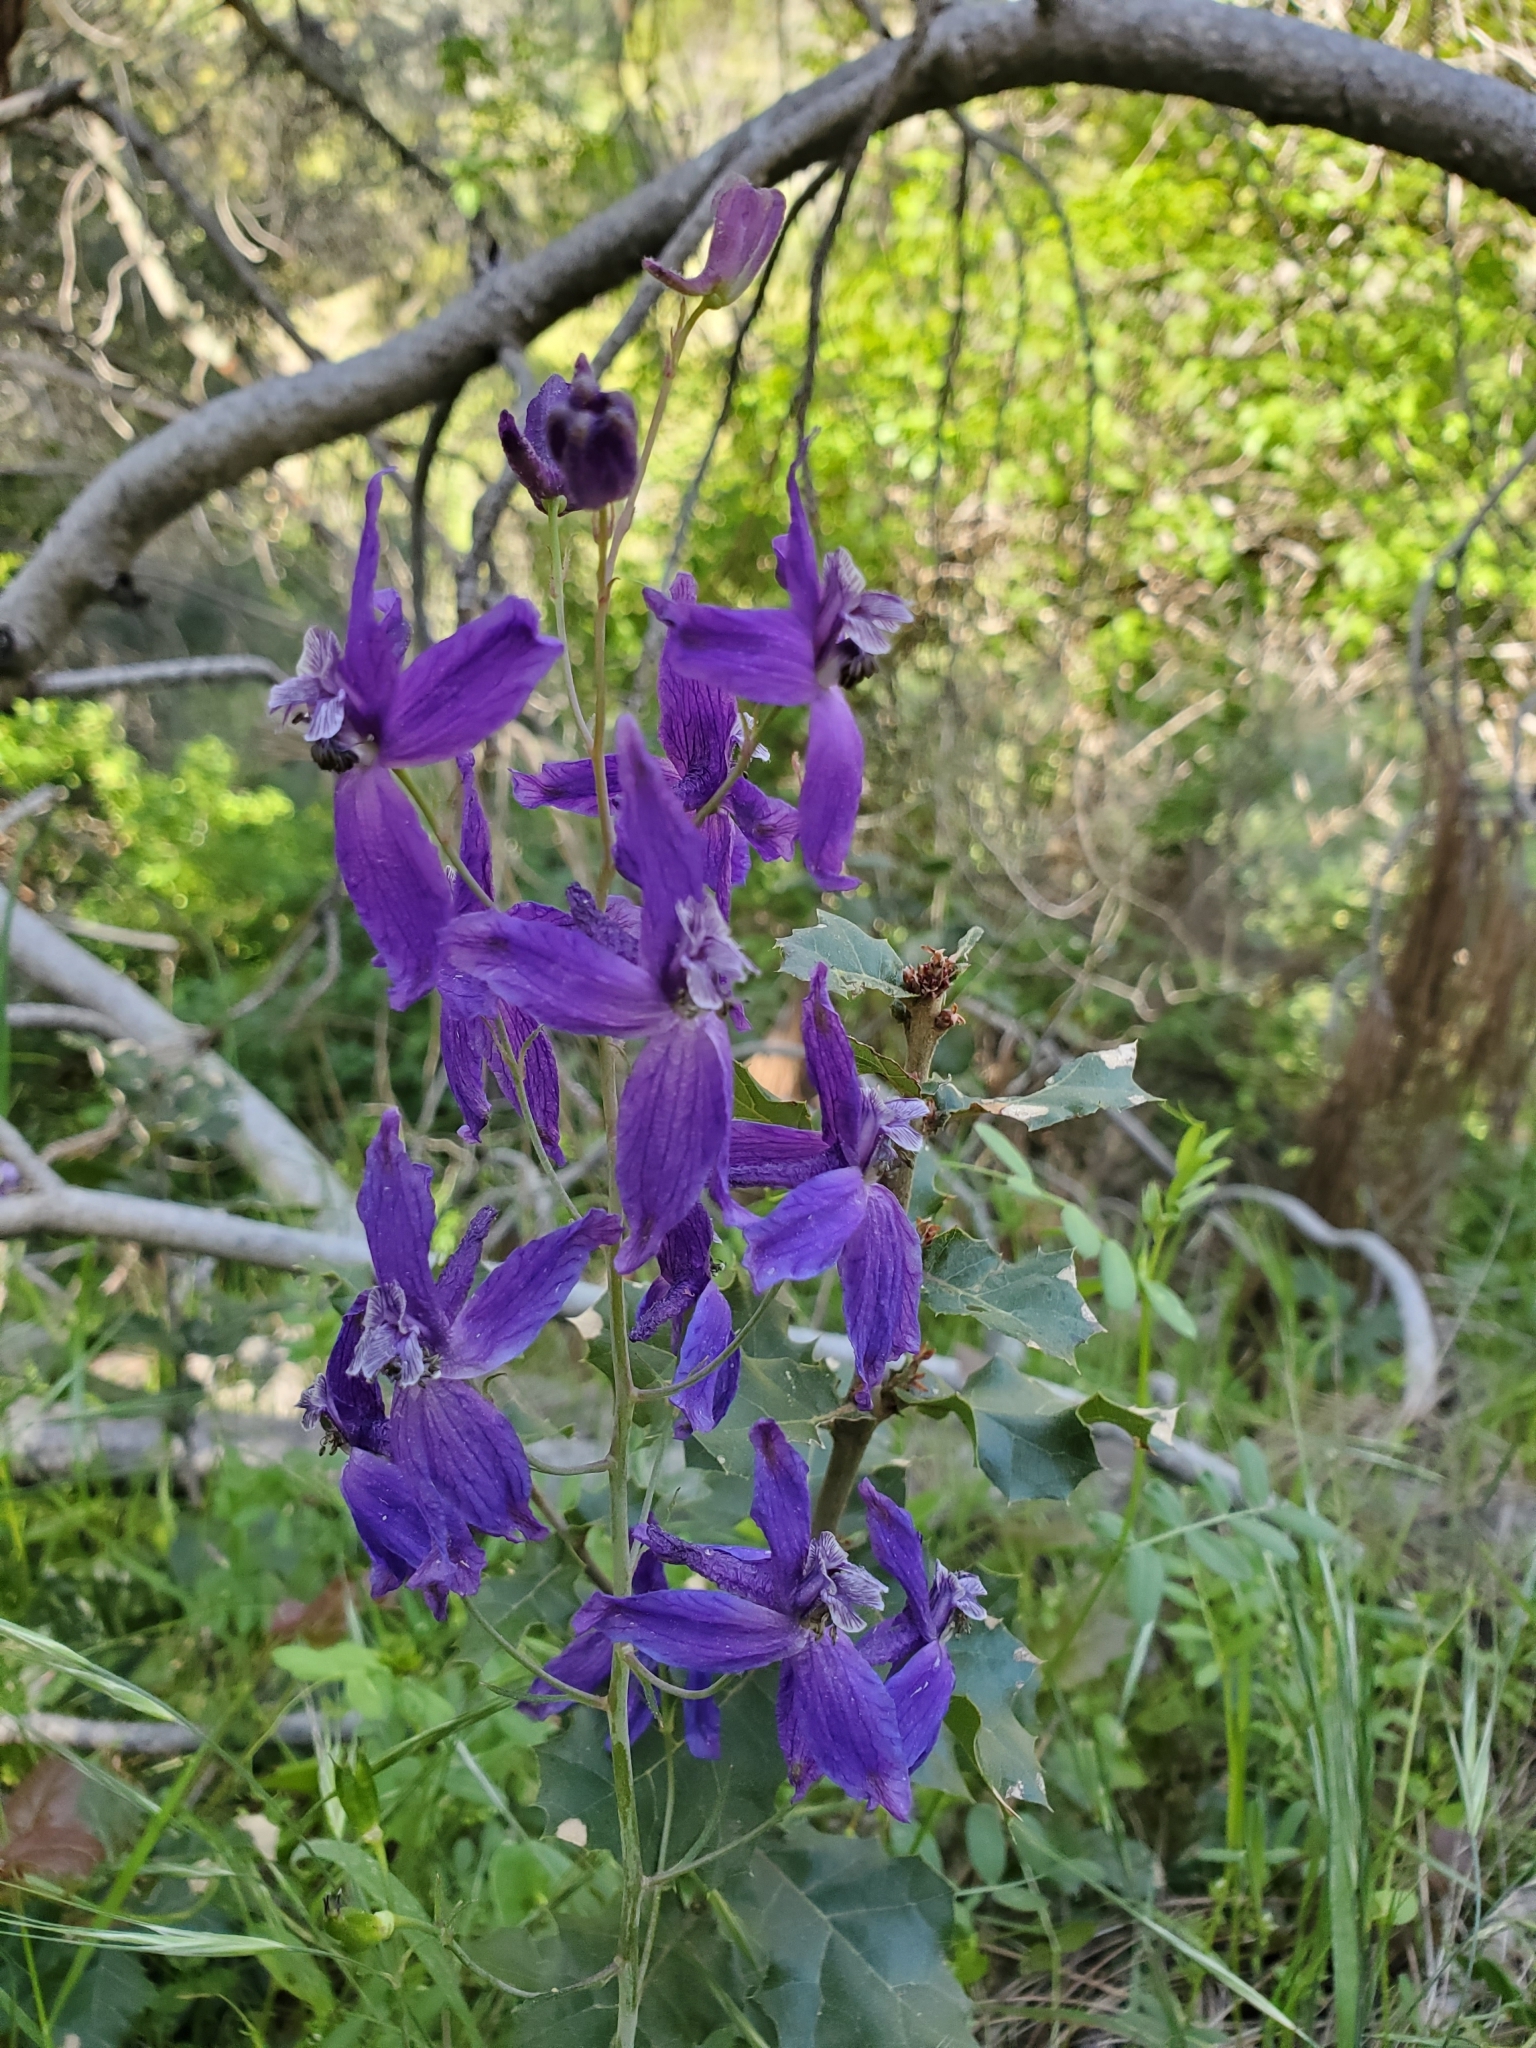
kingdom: Plantae
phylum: Tracheophyta
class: Magnoliopsida
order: Ranunculales
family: Ranunculaceae
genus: Delphinium
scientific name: Delphinium patens
